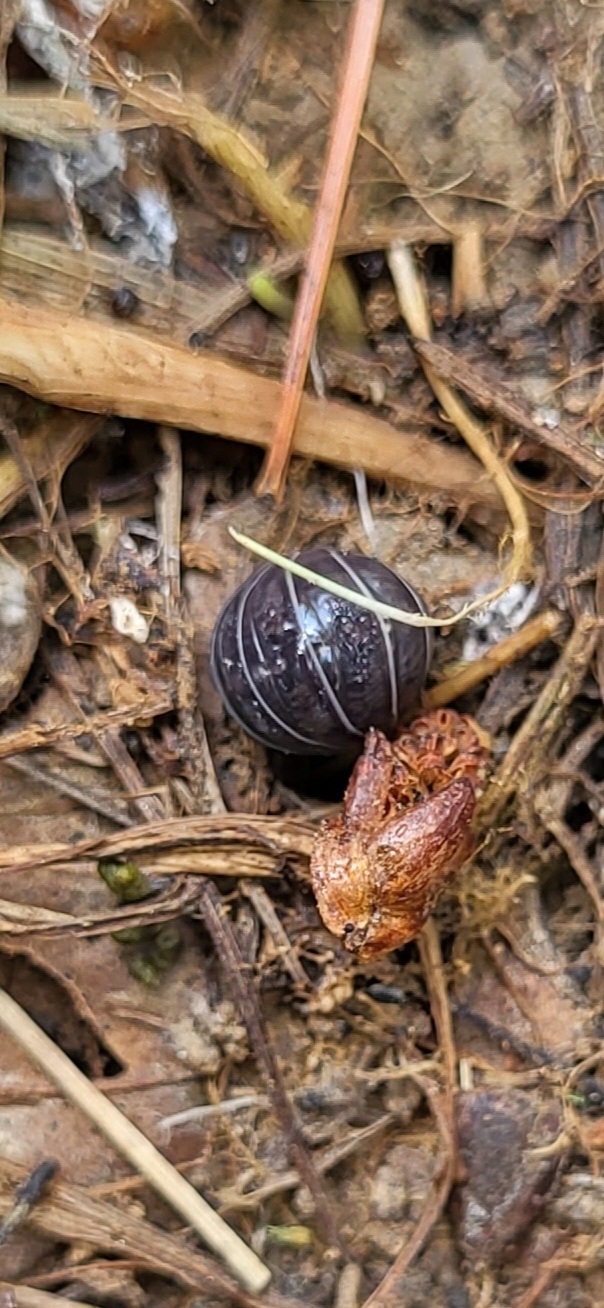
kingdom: Animalia
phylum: Arthropoda
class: Malacostraca
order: Isopoda
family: Armadillidiidae
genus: Armadillidium
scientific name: Armadillidium vulgare
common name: Common pill woodlouse
